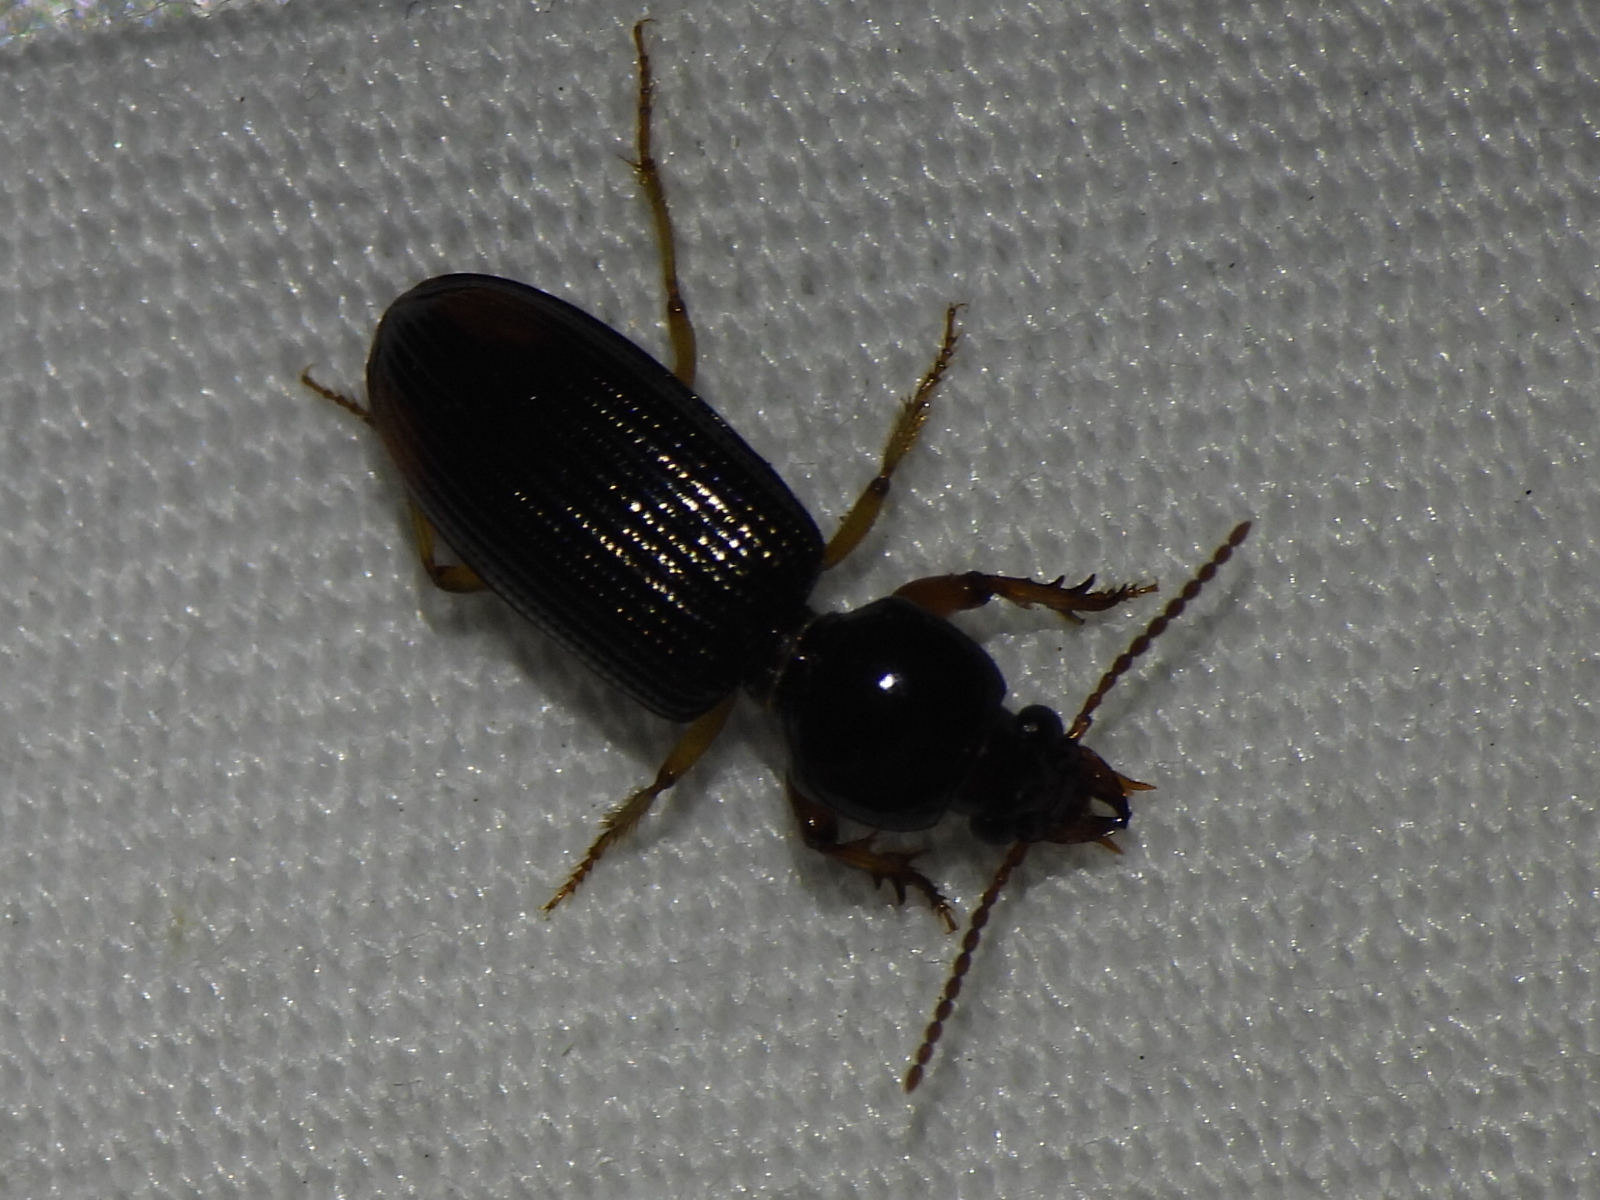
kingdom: Animalia
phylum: Arthropoda
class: Insecta
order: Coleoptera
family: Carabidae
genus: Aspidoglossa
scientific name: Aspidoglossa subangulata
